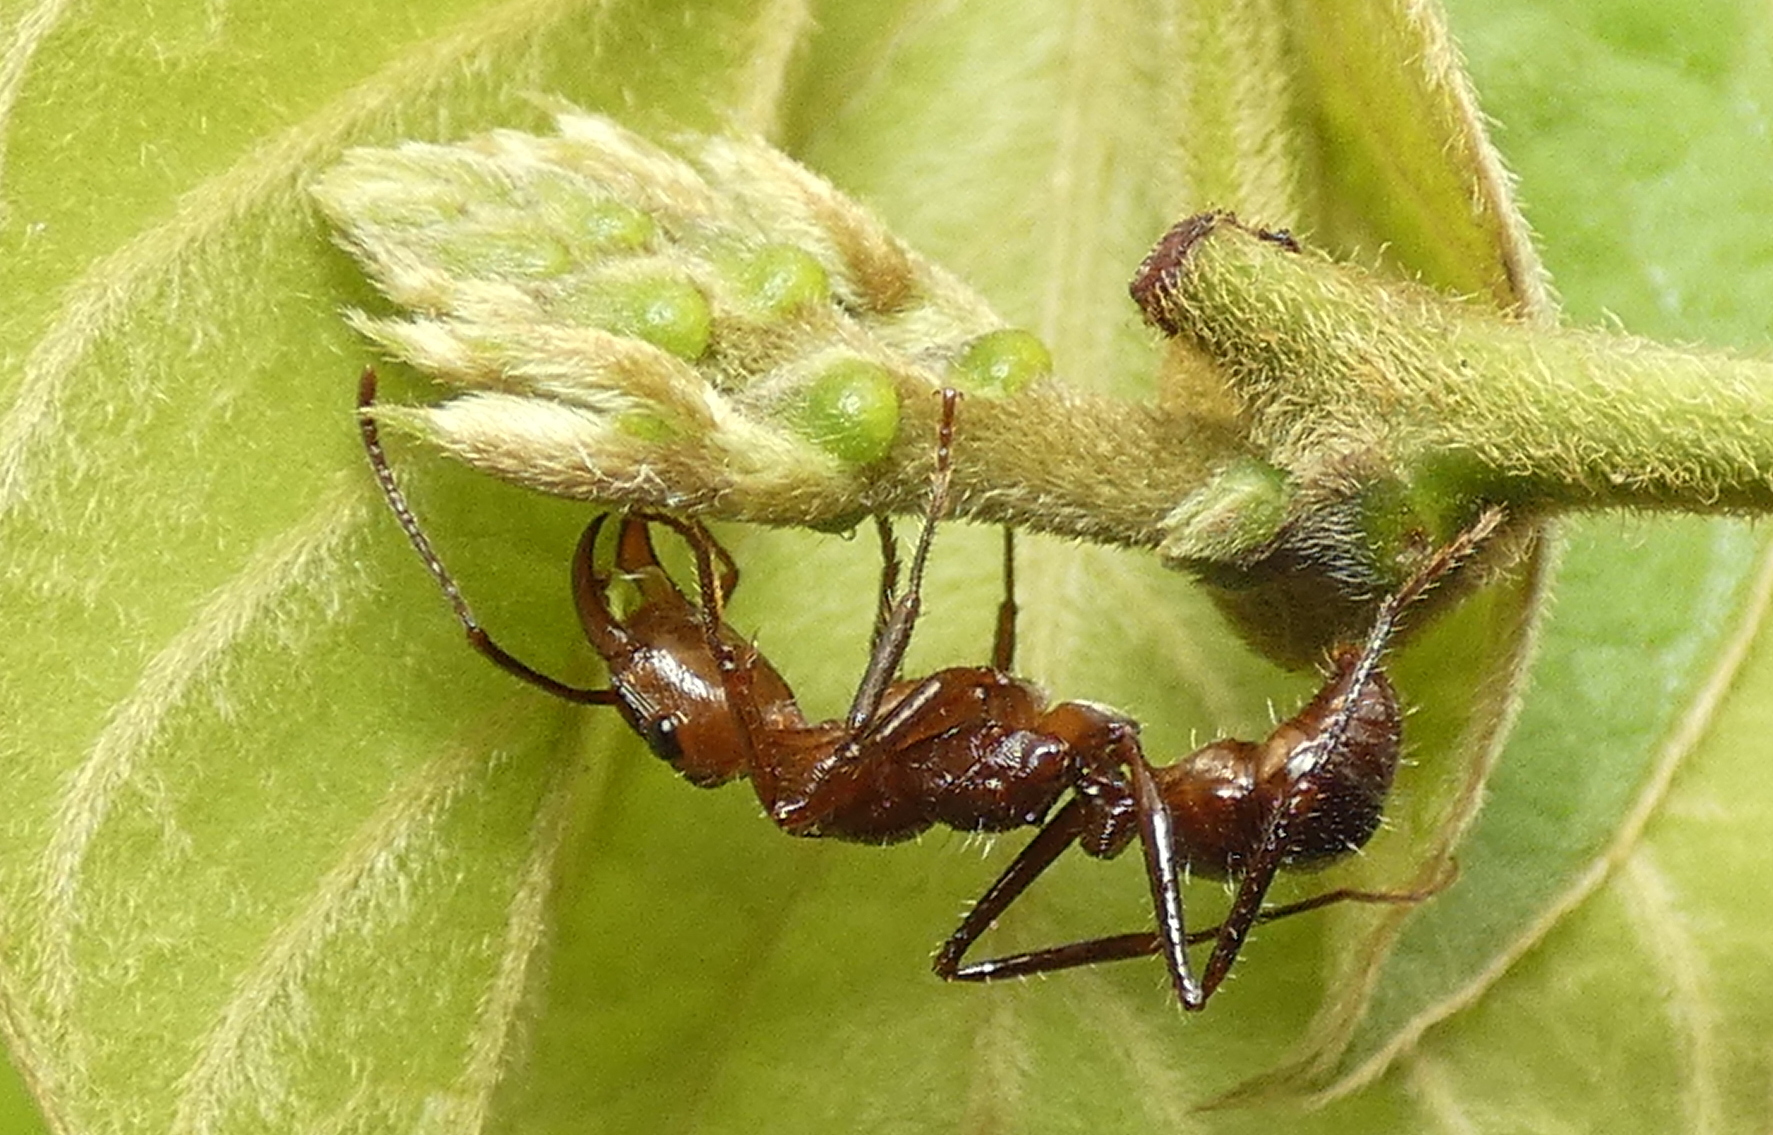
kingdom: Animalia
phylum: Arthropoda
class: Insecta
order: Hymenoptera
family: Formicidae
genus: Ectatomma
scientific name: Ectatomma tuberculatum
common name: Ant
